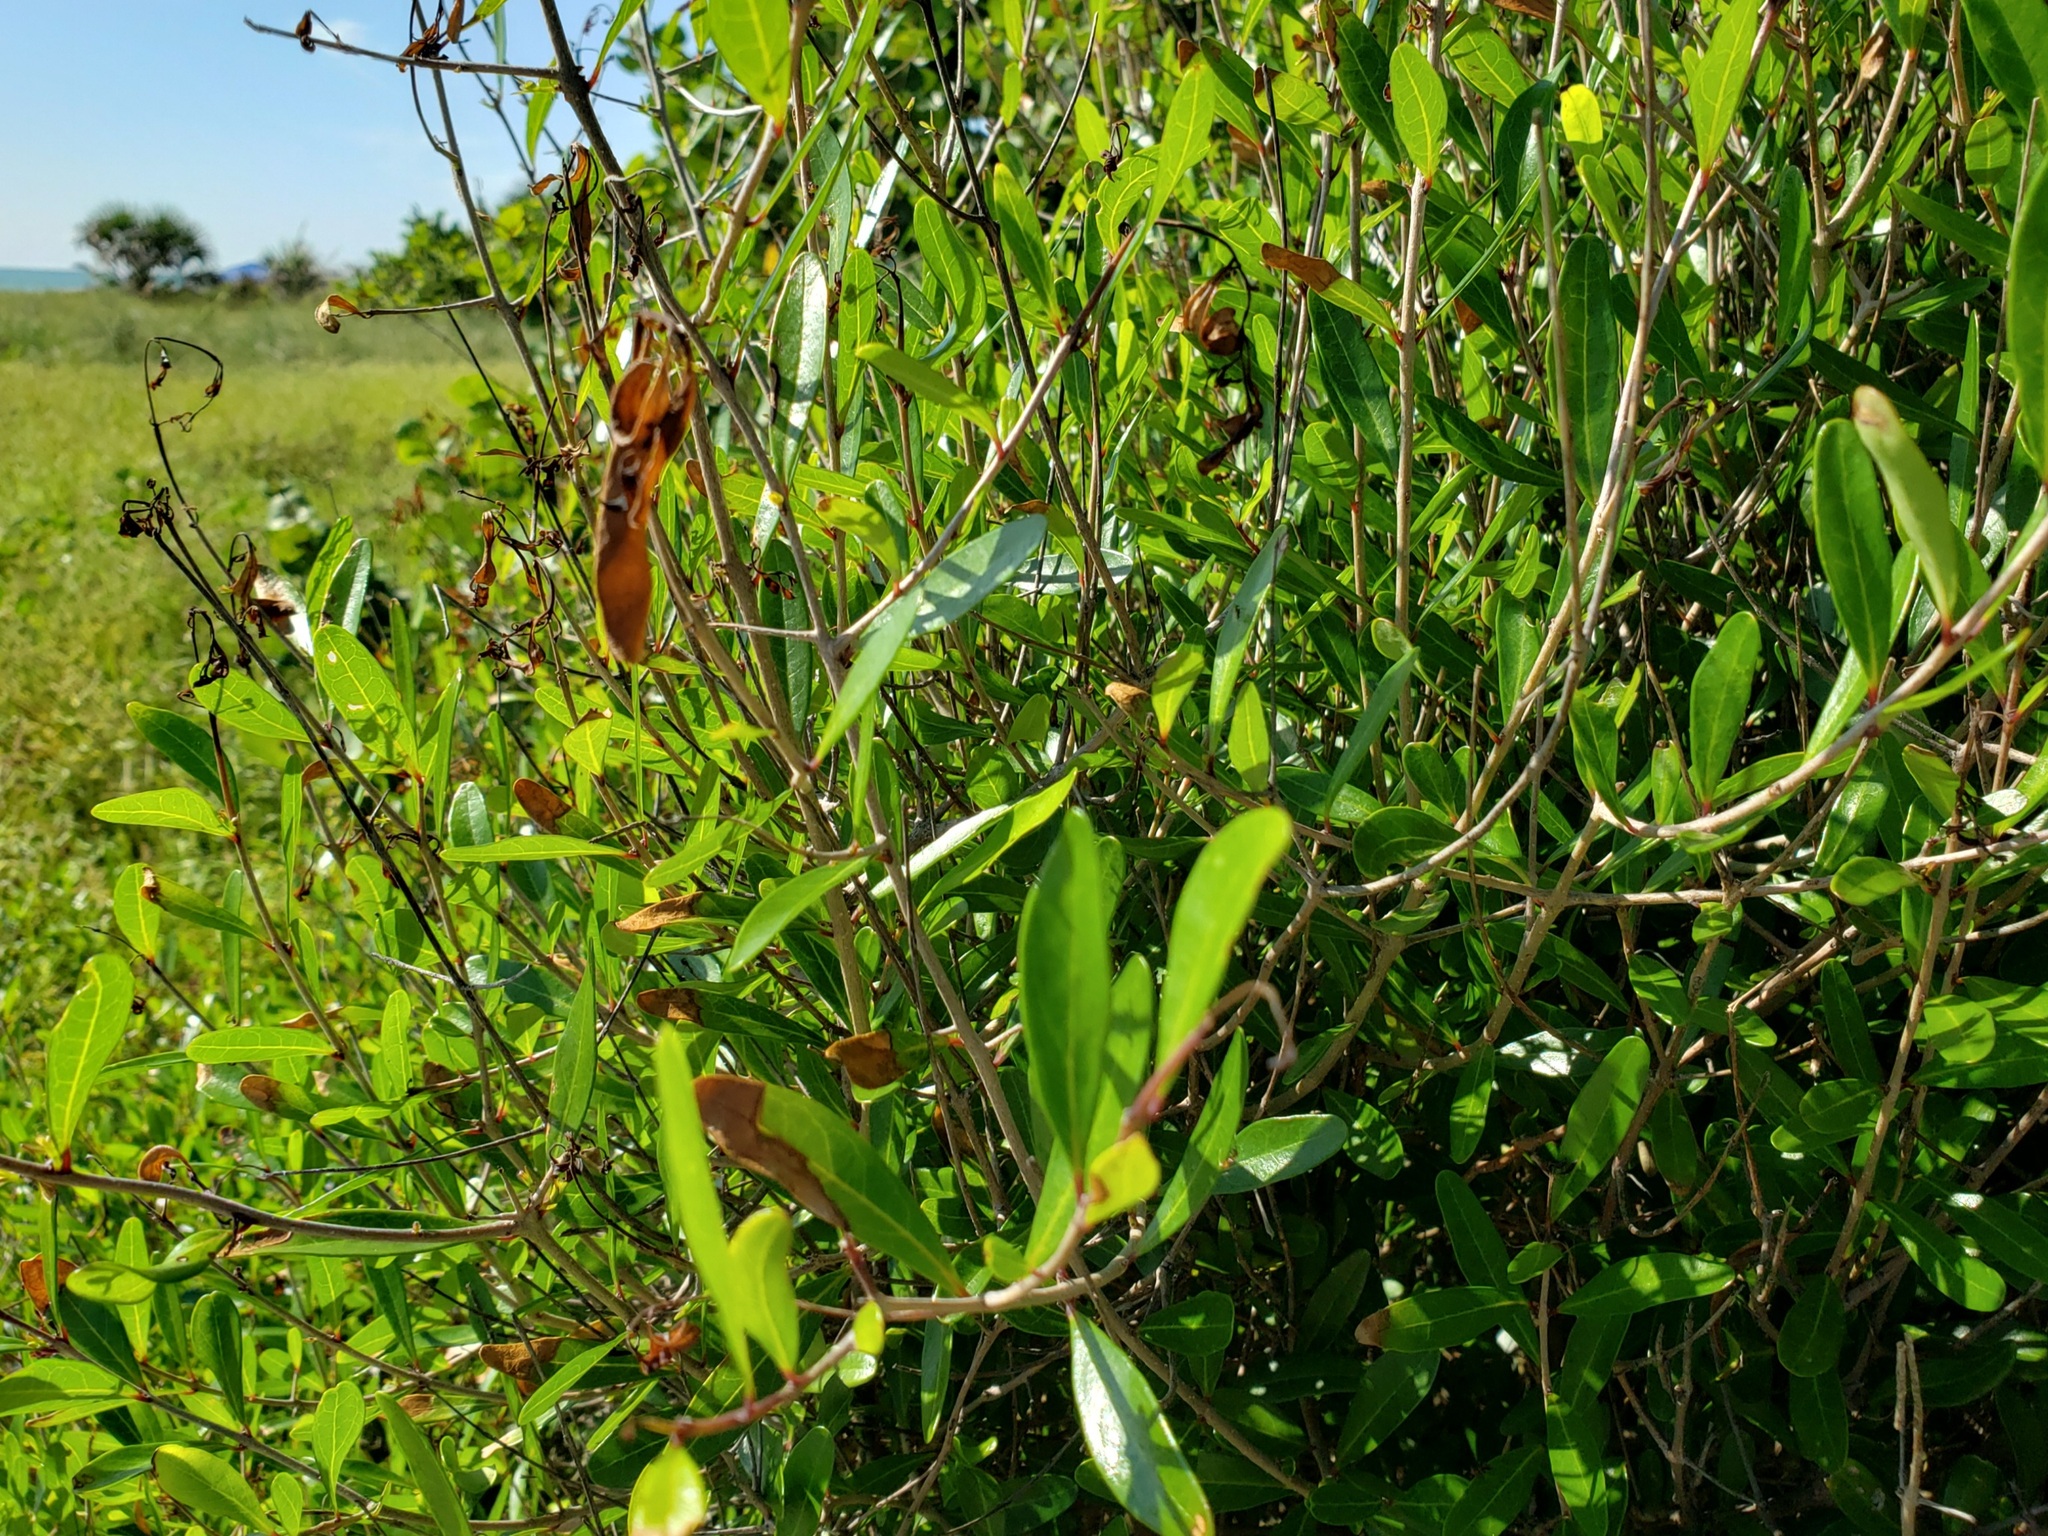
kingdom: Plantae
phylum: Tracheophyta
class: Magnoliopsida
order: Lamiales
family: Oleaceae
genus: Forestiera
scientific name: Forestiera segregata
